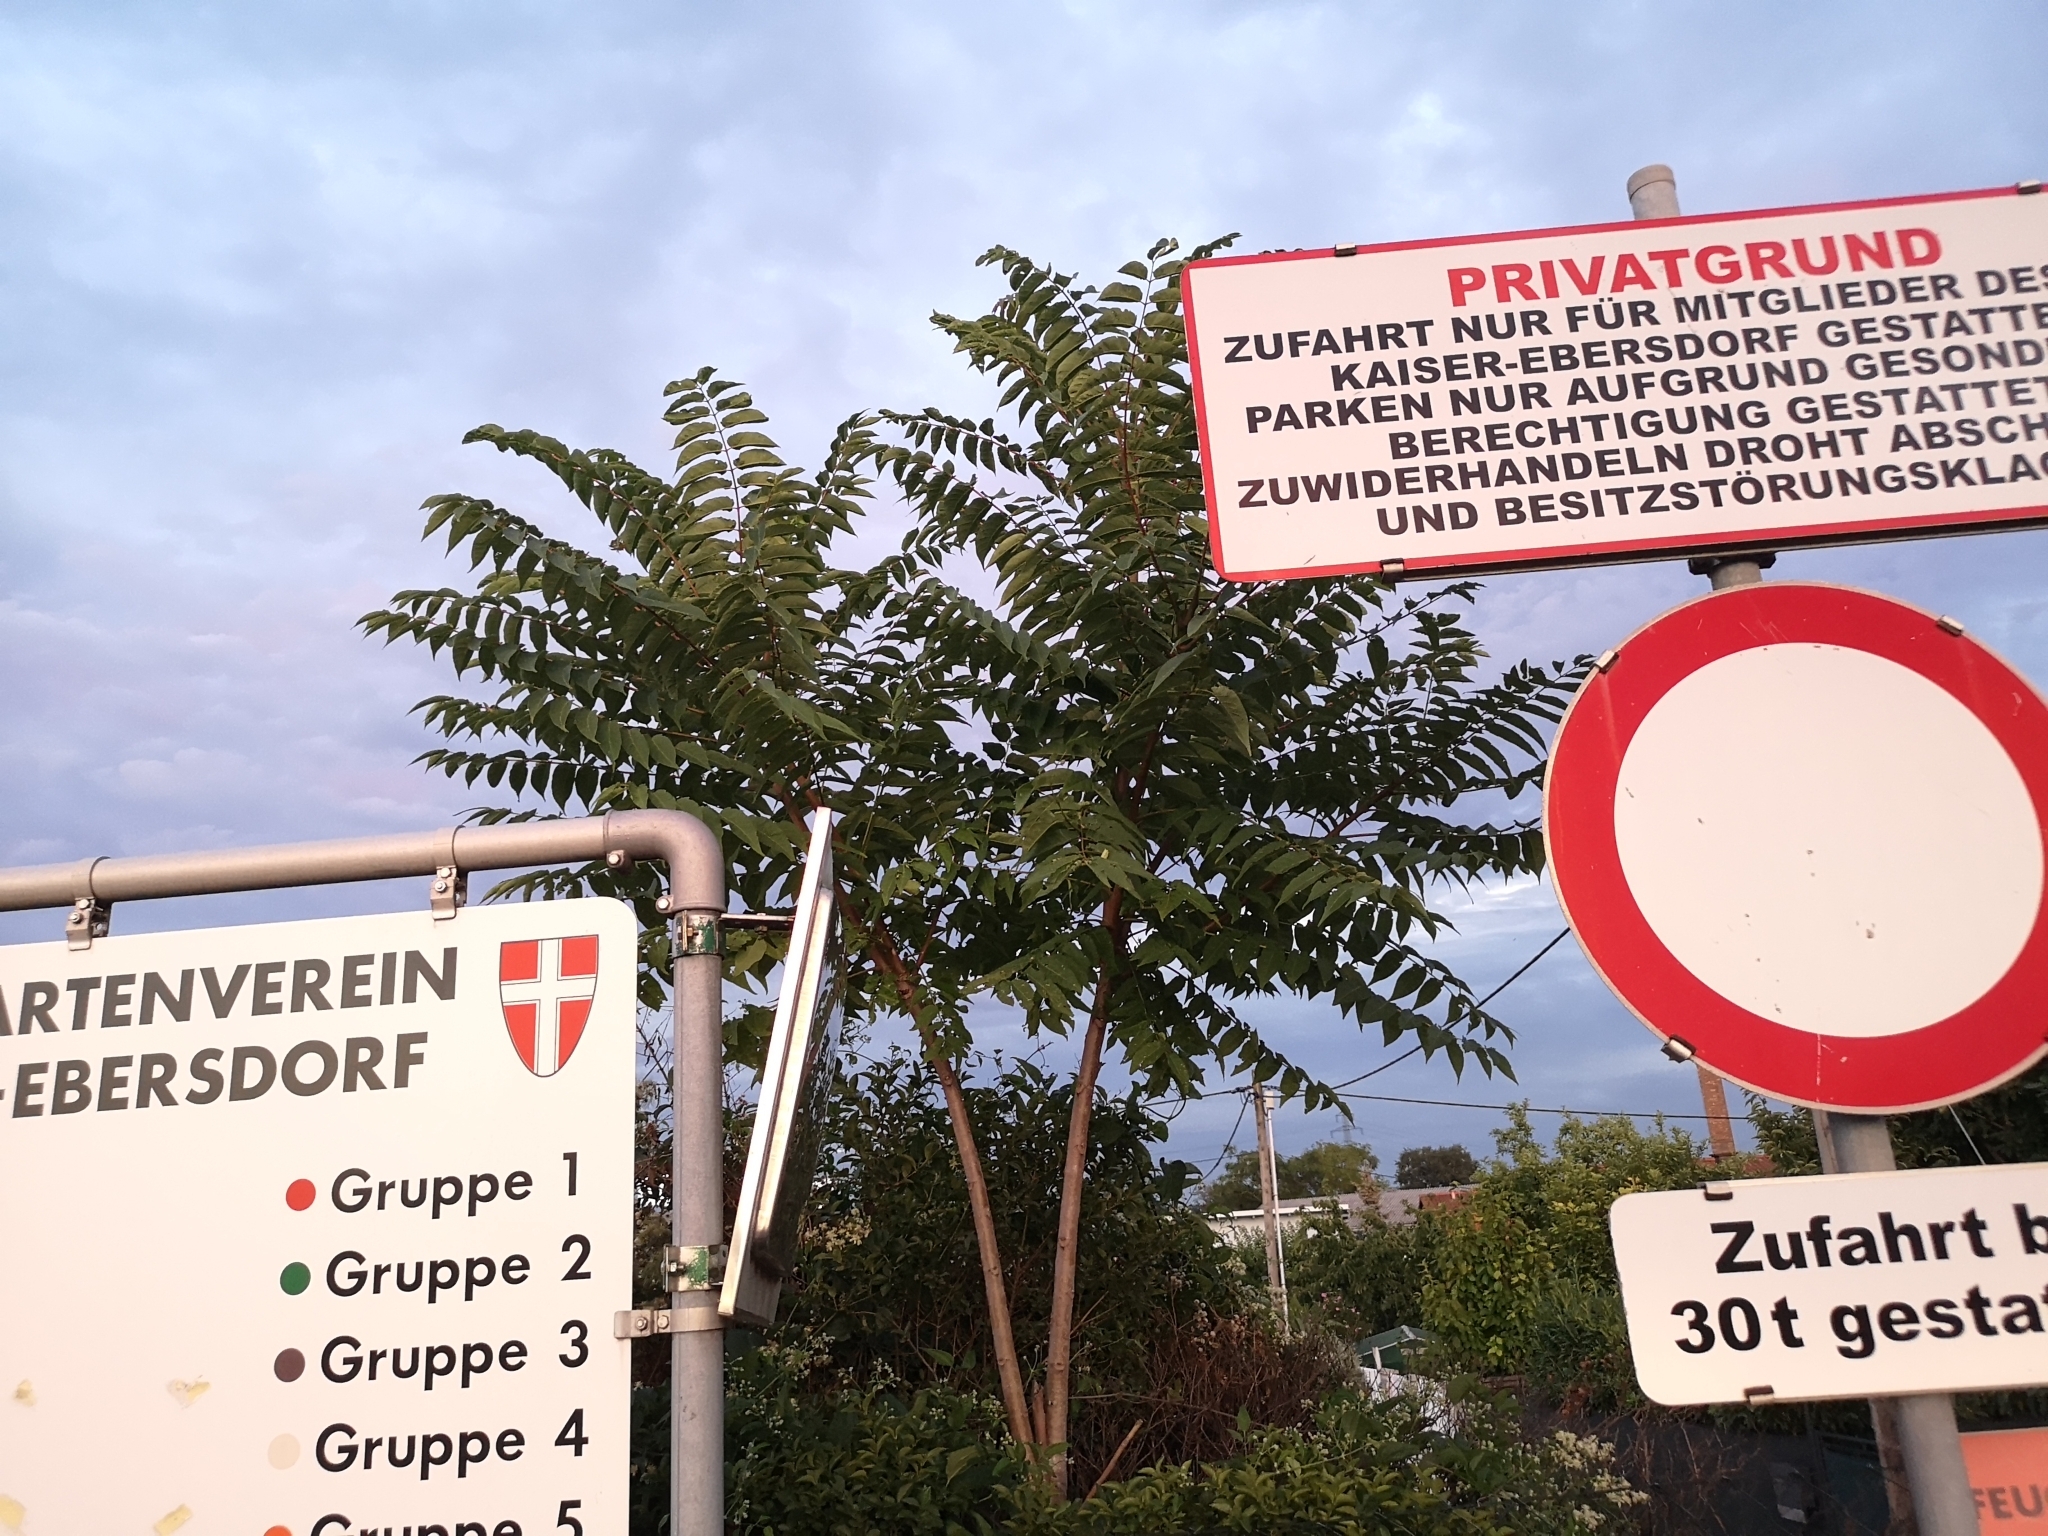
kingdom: Plantae
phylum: Tracheophyta
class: Magnoliopsida
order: Sapindales
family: Simaroubaceae
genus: Ailanthus
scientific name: Ailanthus altissima
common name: Tree-of-heaven
